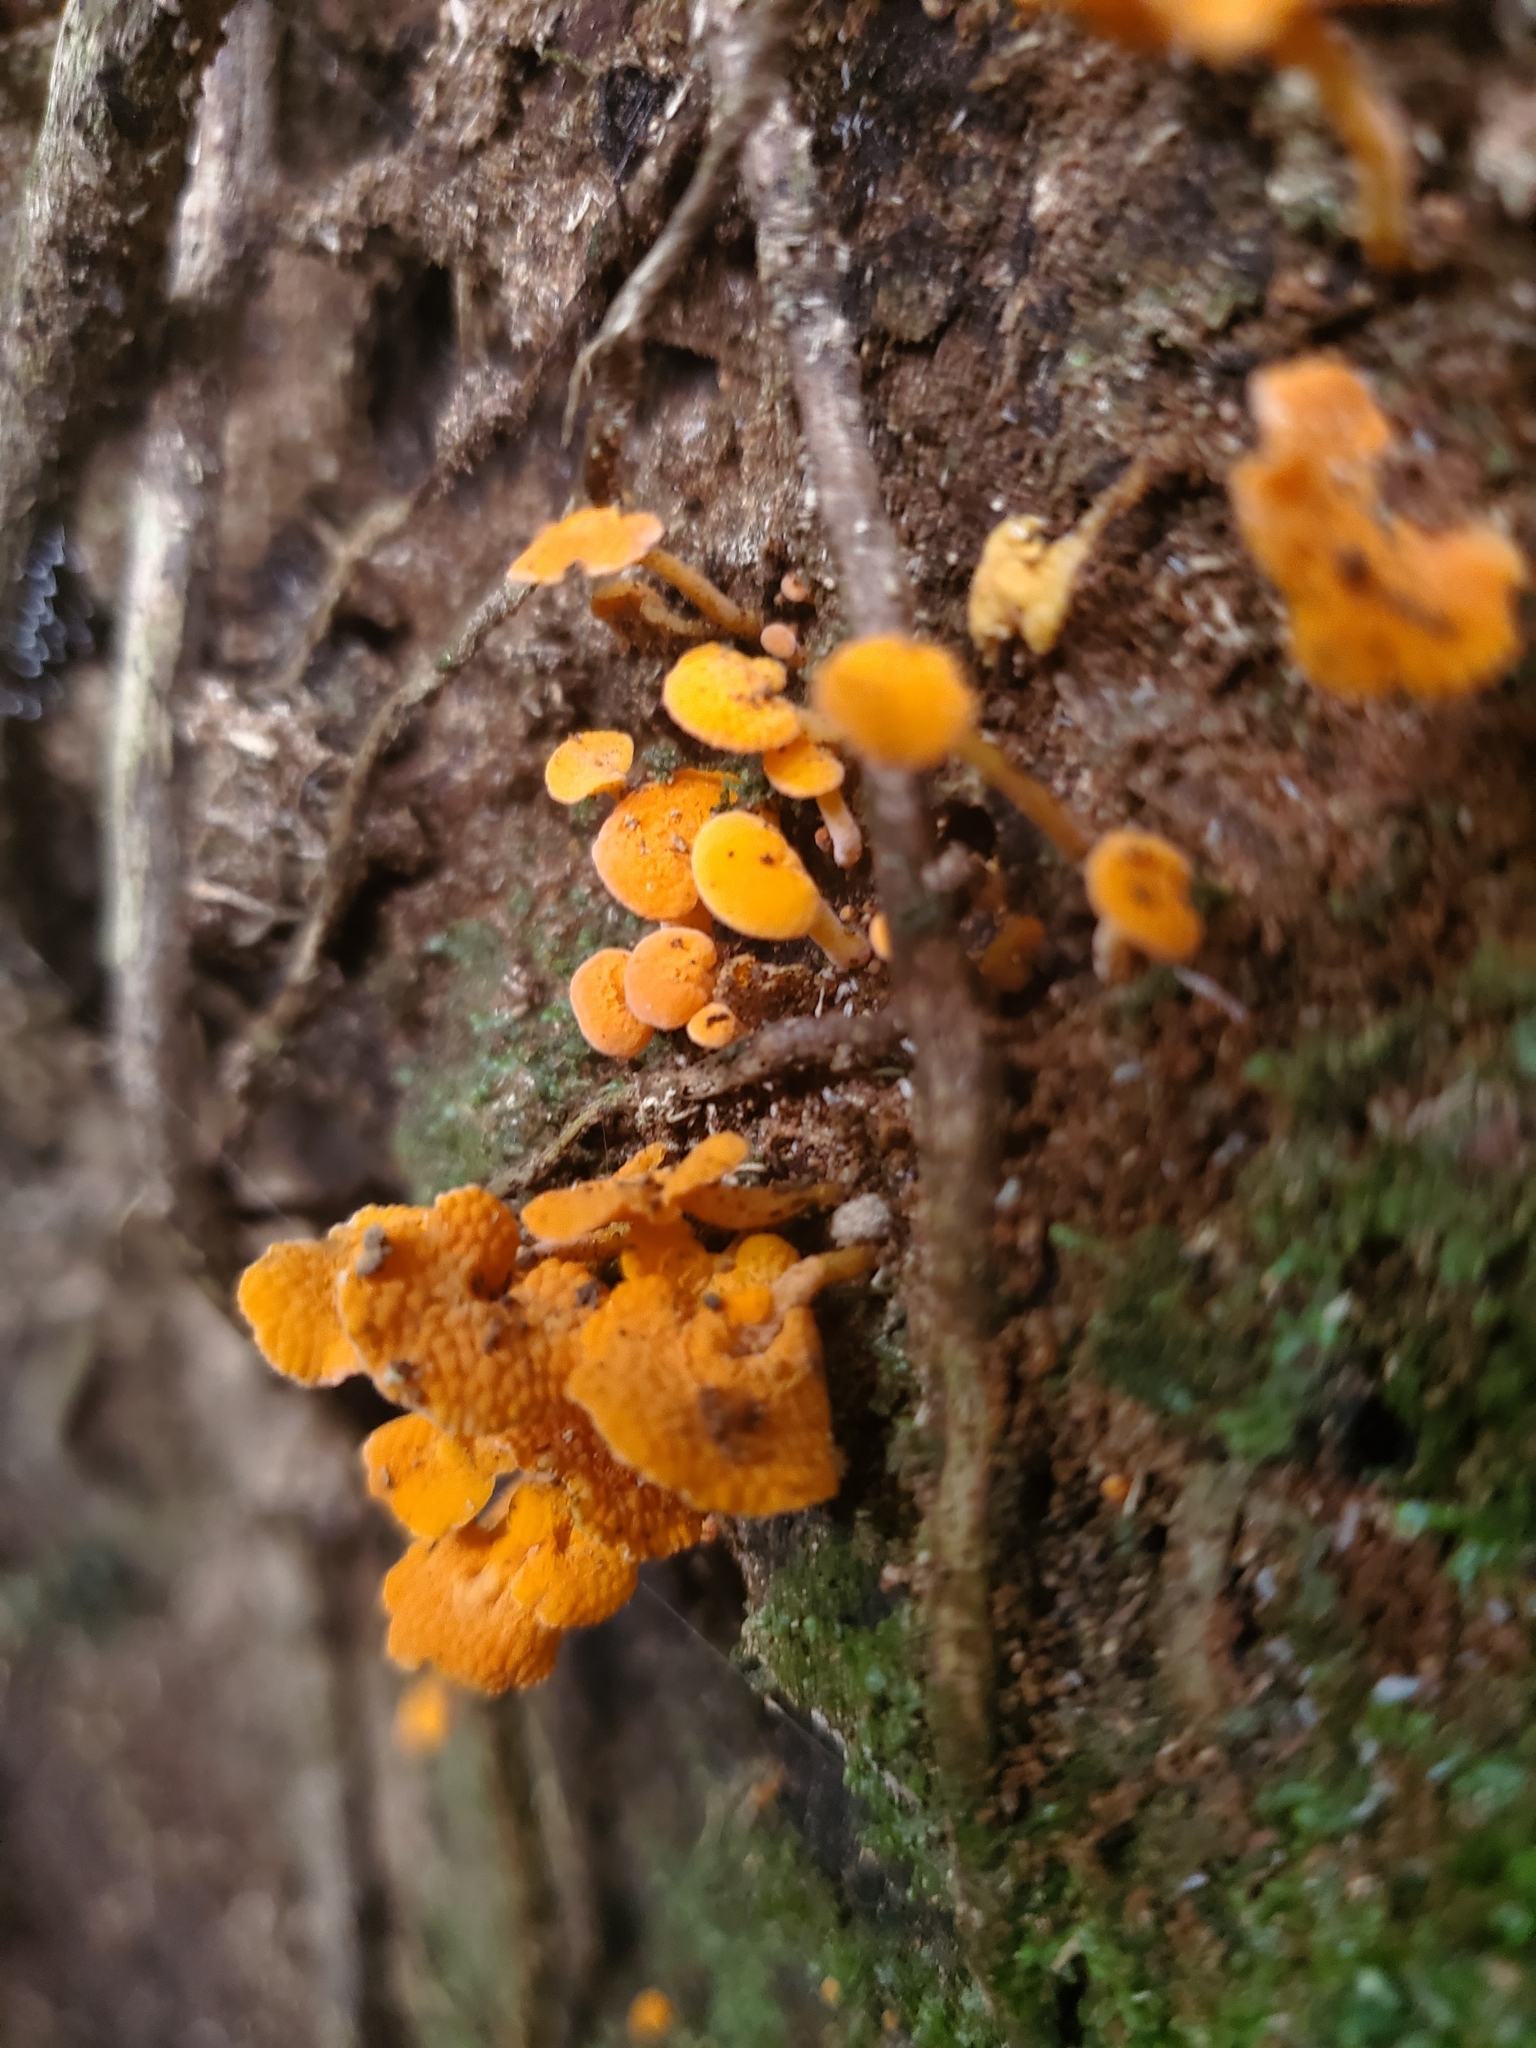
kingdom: Fungi
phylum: Basidiomycota
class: Agaricomycetes
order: Agaricales
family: Mycenaceae
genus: Favolaschia
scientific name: Favolaschia claudopus
